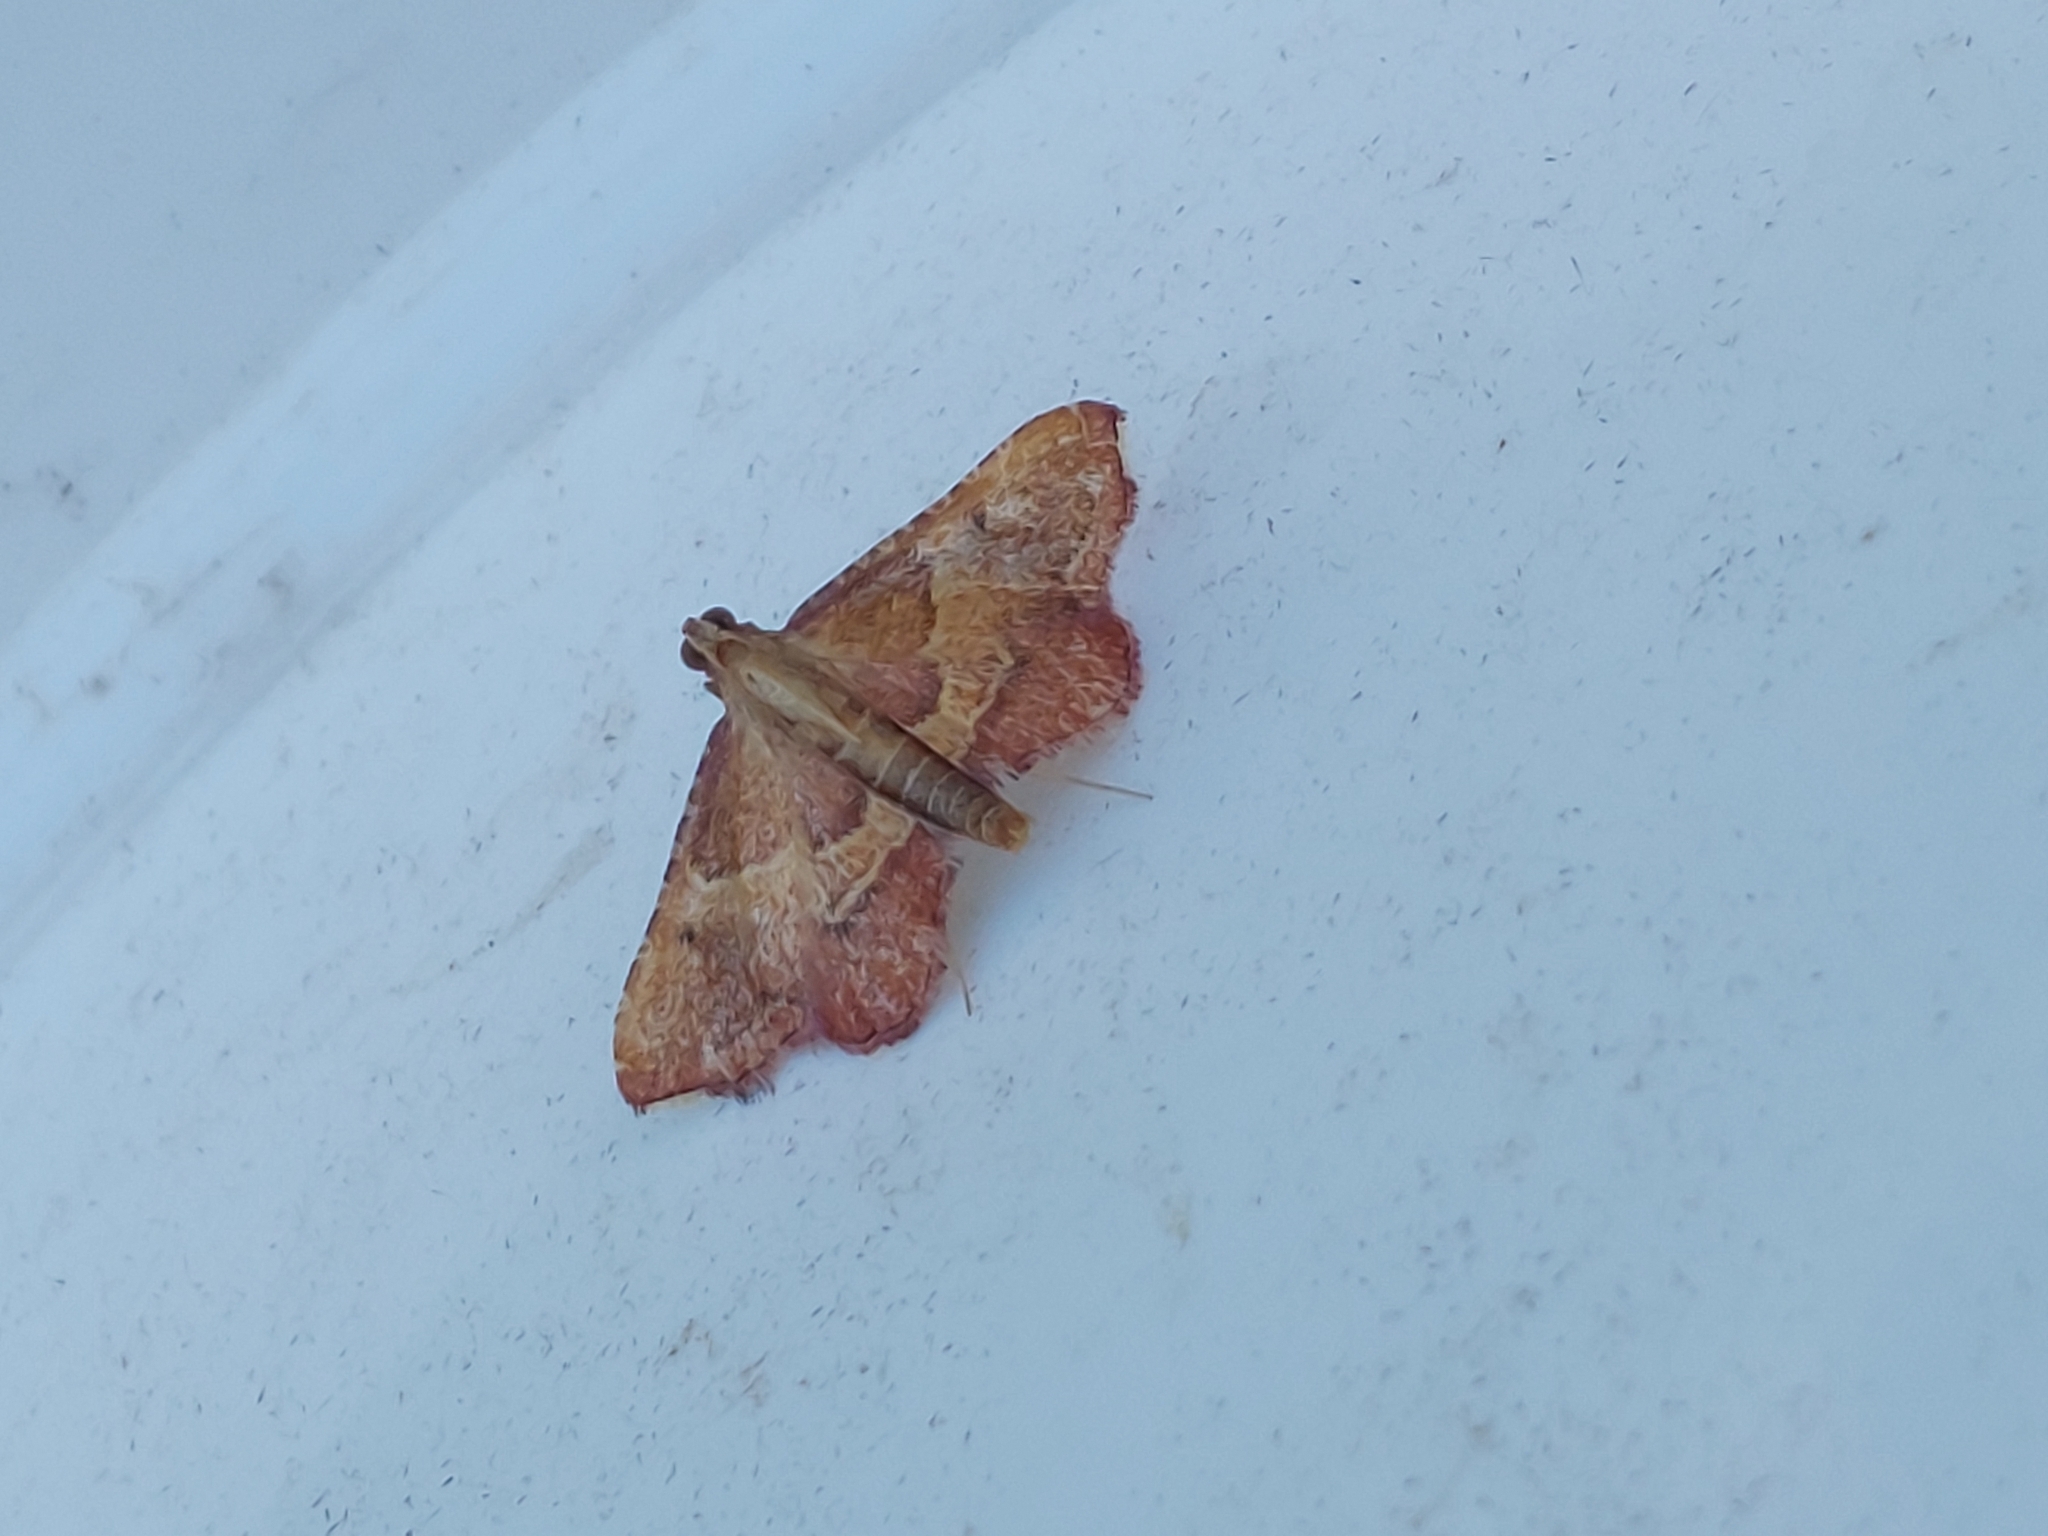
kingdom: Animalia
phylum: Arthropoda
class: Insecta
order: Lepidoptera
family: Pyralidae
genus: Endotricha
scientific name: Endotricha flammealis
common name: Rosy tabby
